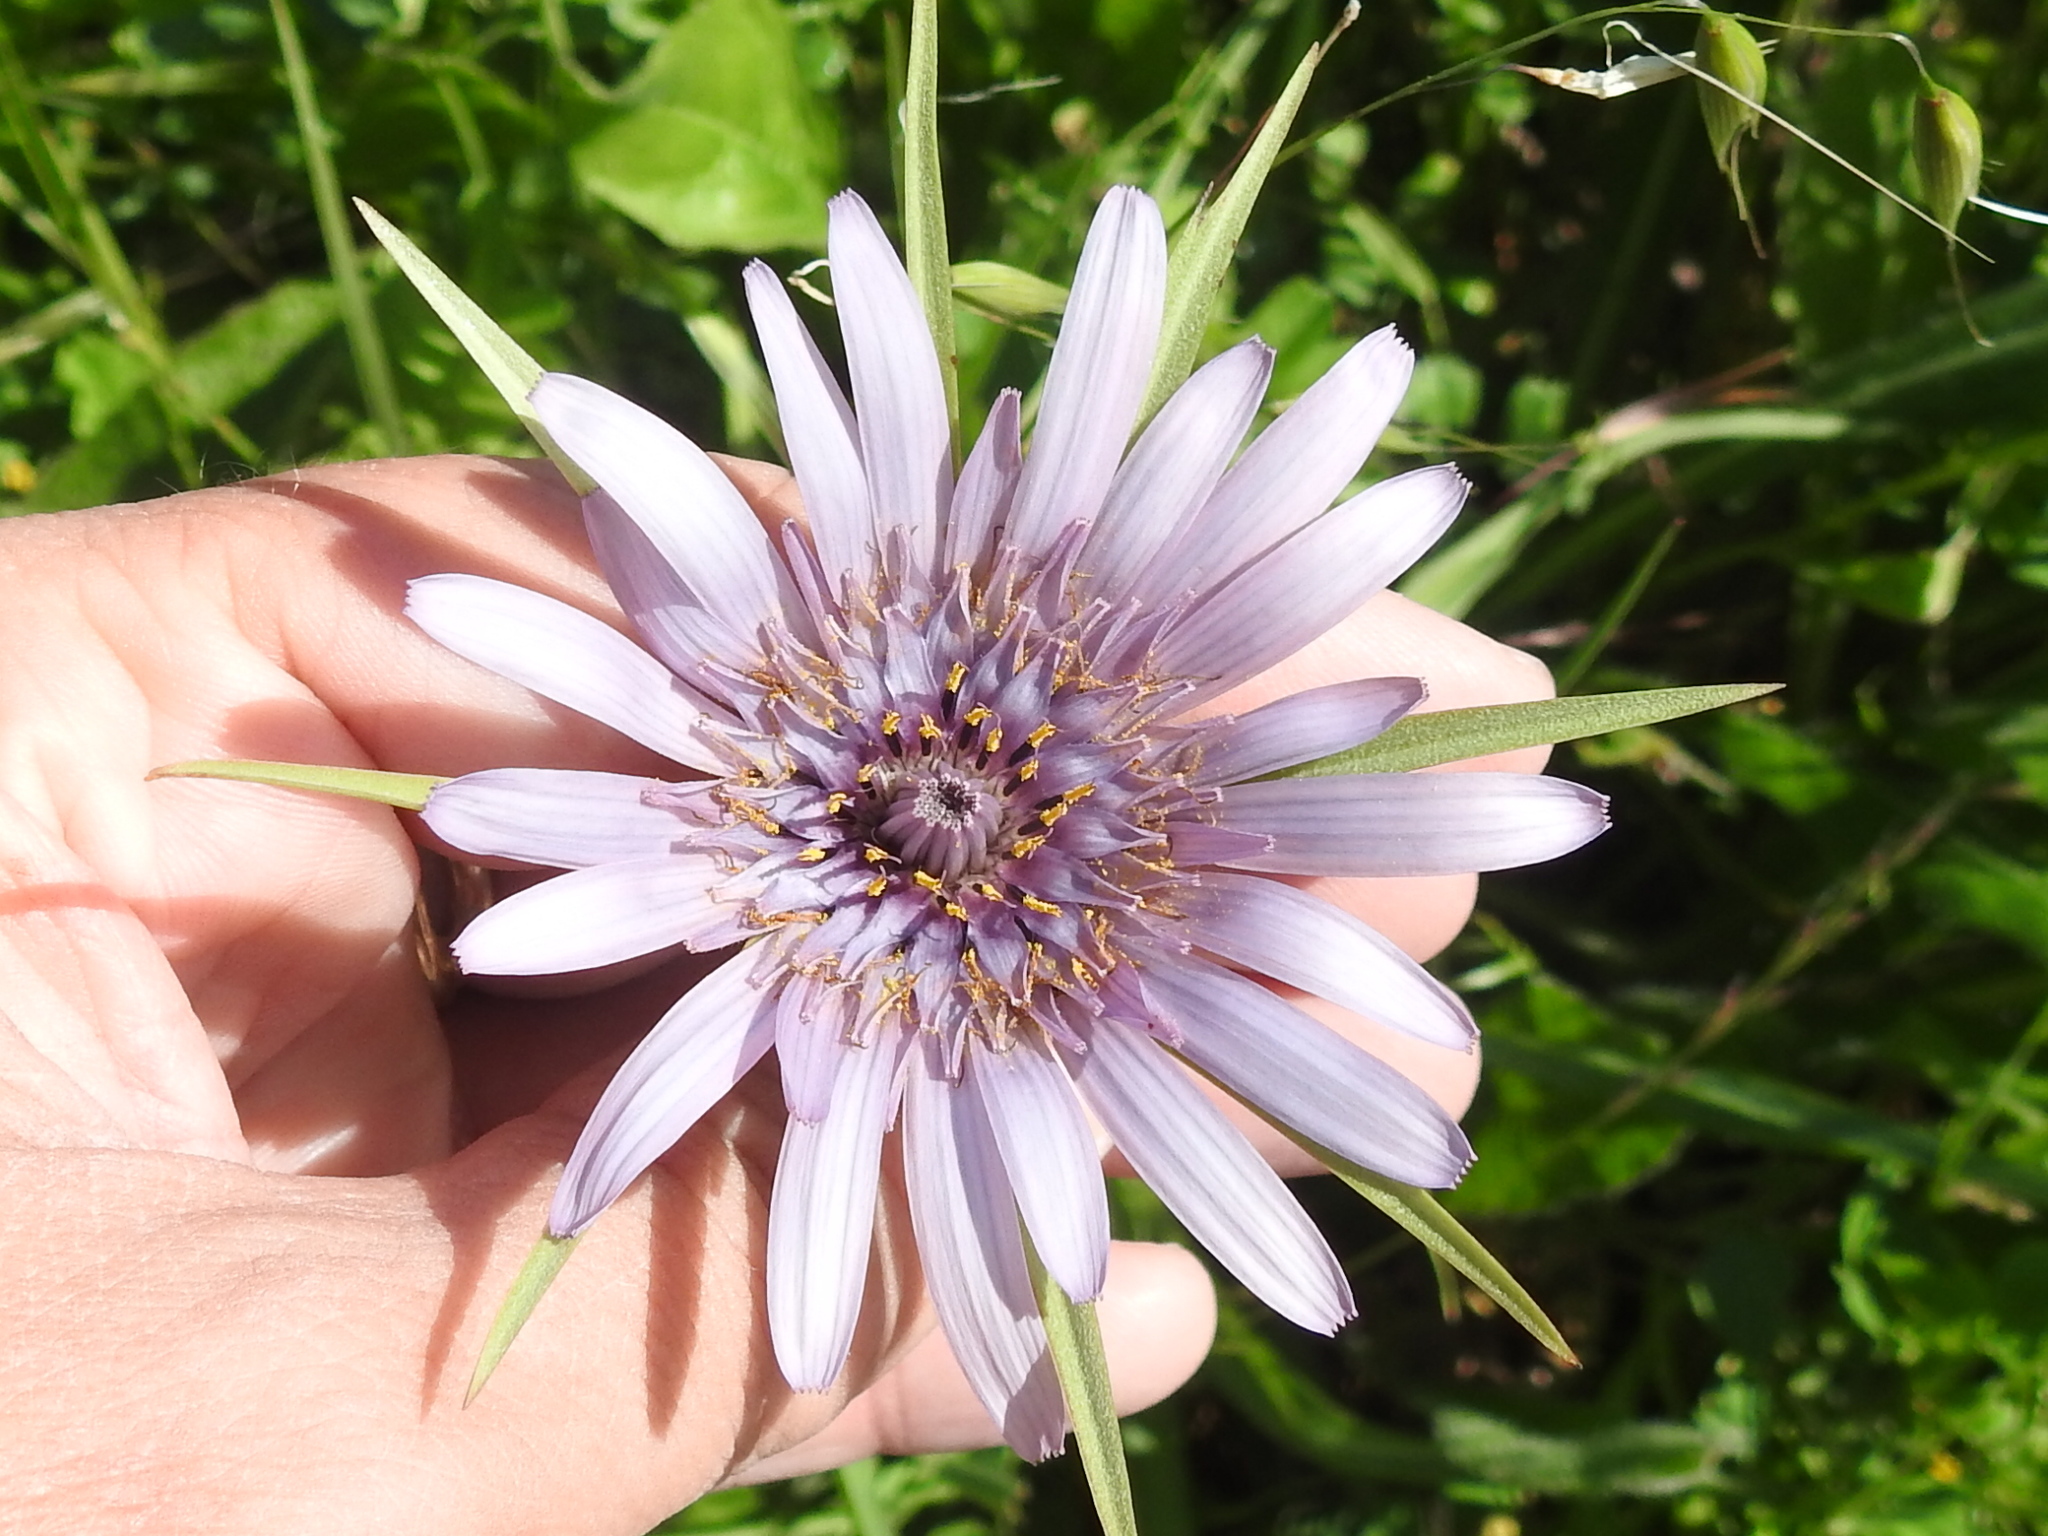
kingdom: Plantae
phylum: Tracheophyta
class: Magnoliopsida
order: Asterales
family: Asteraceae
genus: Tragopogon
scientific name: Tragopogon porrifolius
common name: Salsify
